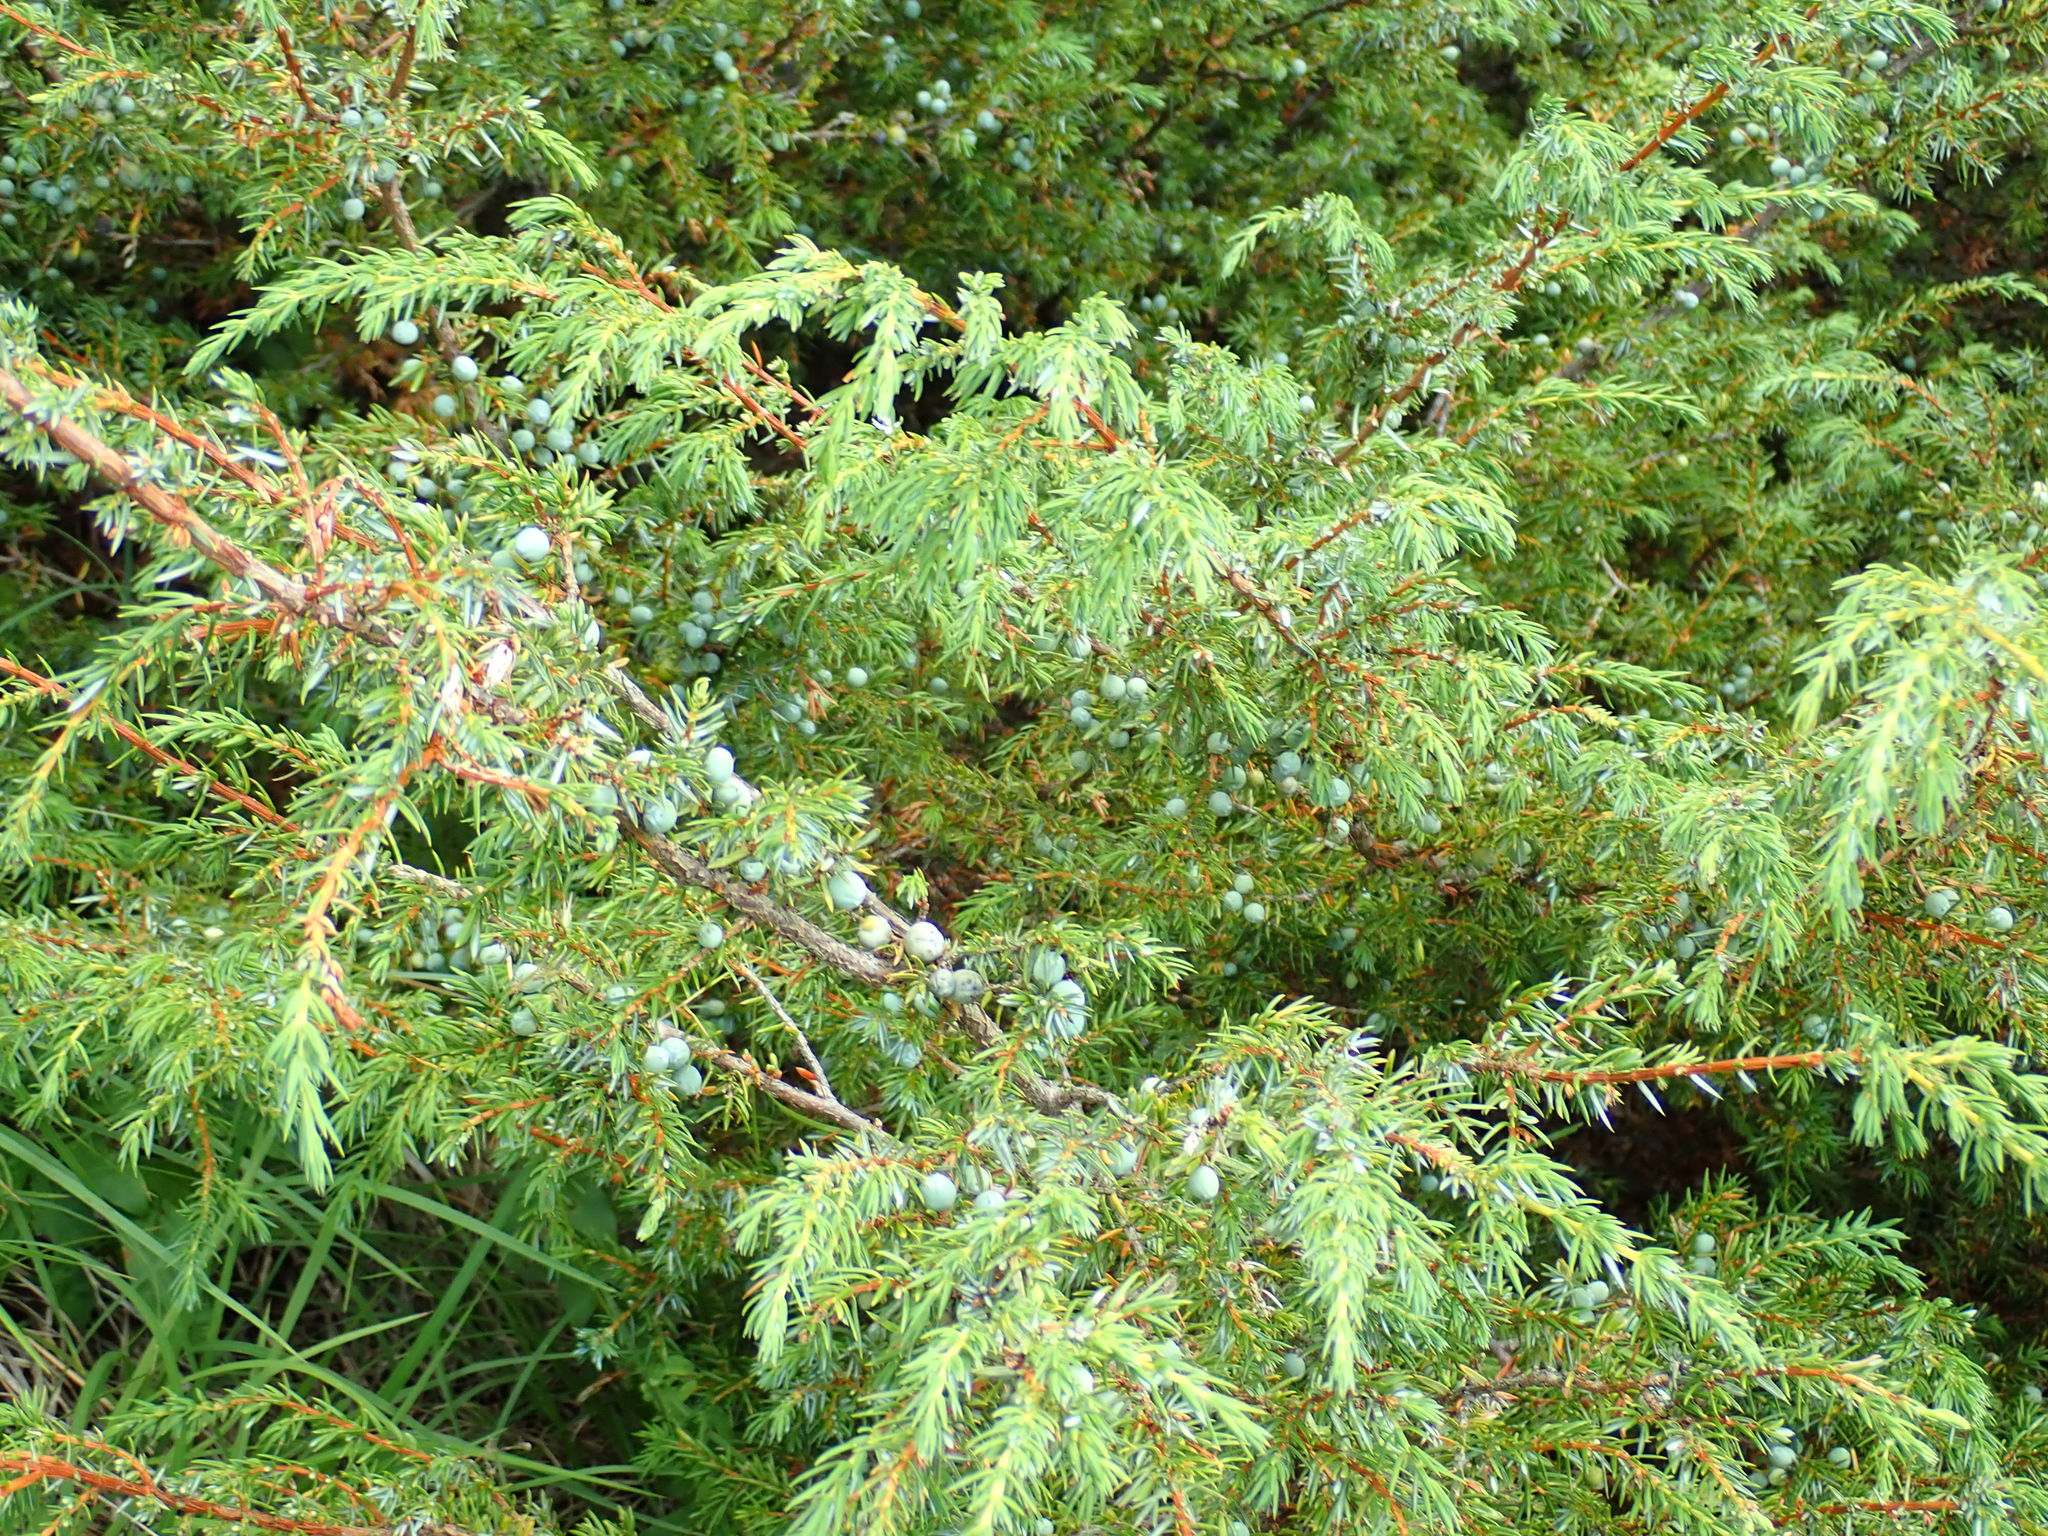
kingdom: Plantae
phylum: Tracheophyta
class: Pinopsida
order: Pinales
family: Cupressaceae
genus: Juniperus
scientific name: Juniperus communis
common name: Common juniper
